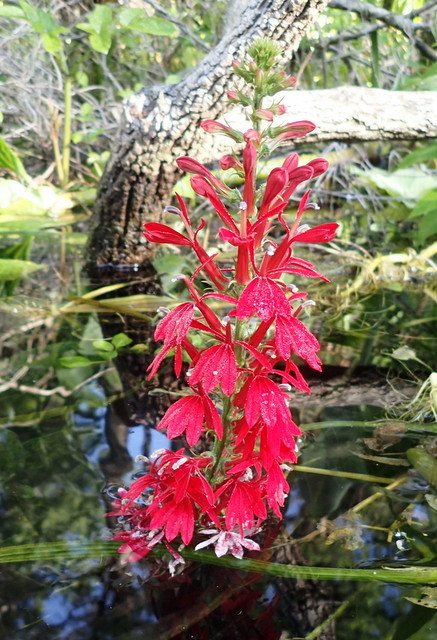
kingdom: Plantae
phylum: Tracheophyta
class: Magnoliopsida
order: Asterales
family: Campanulaceae
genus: Lobelia
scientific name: Lobelia cardinalis
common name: Cardinal flower
